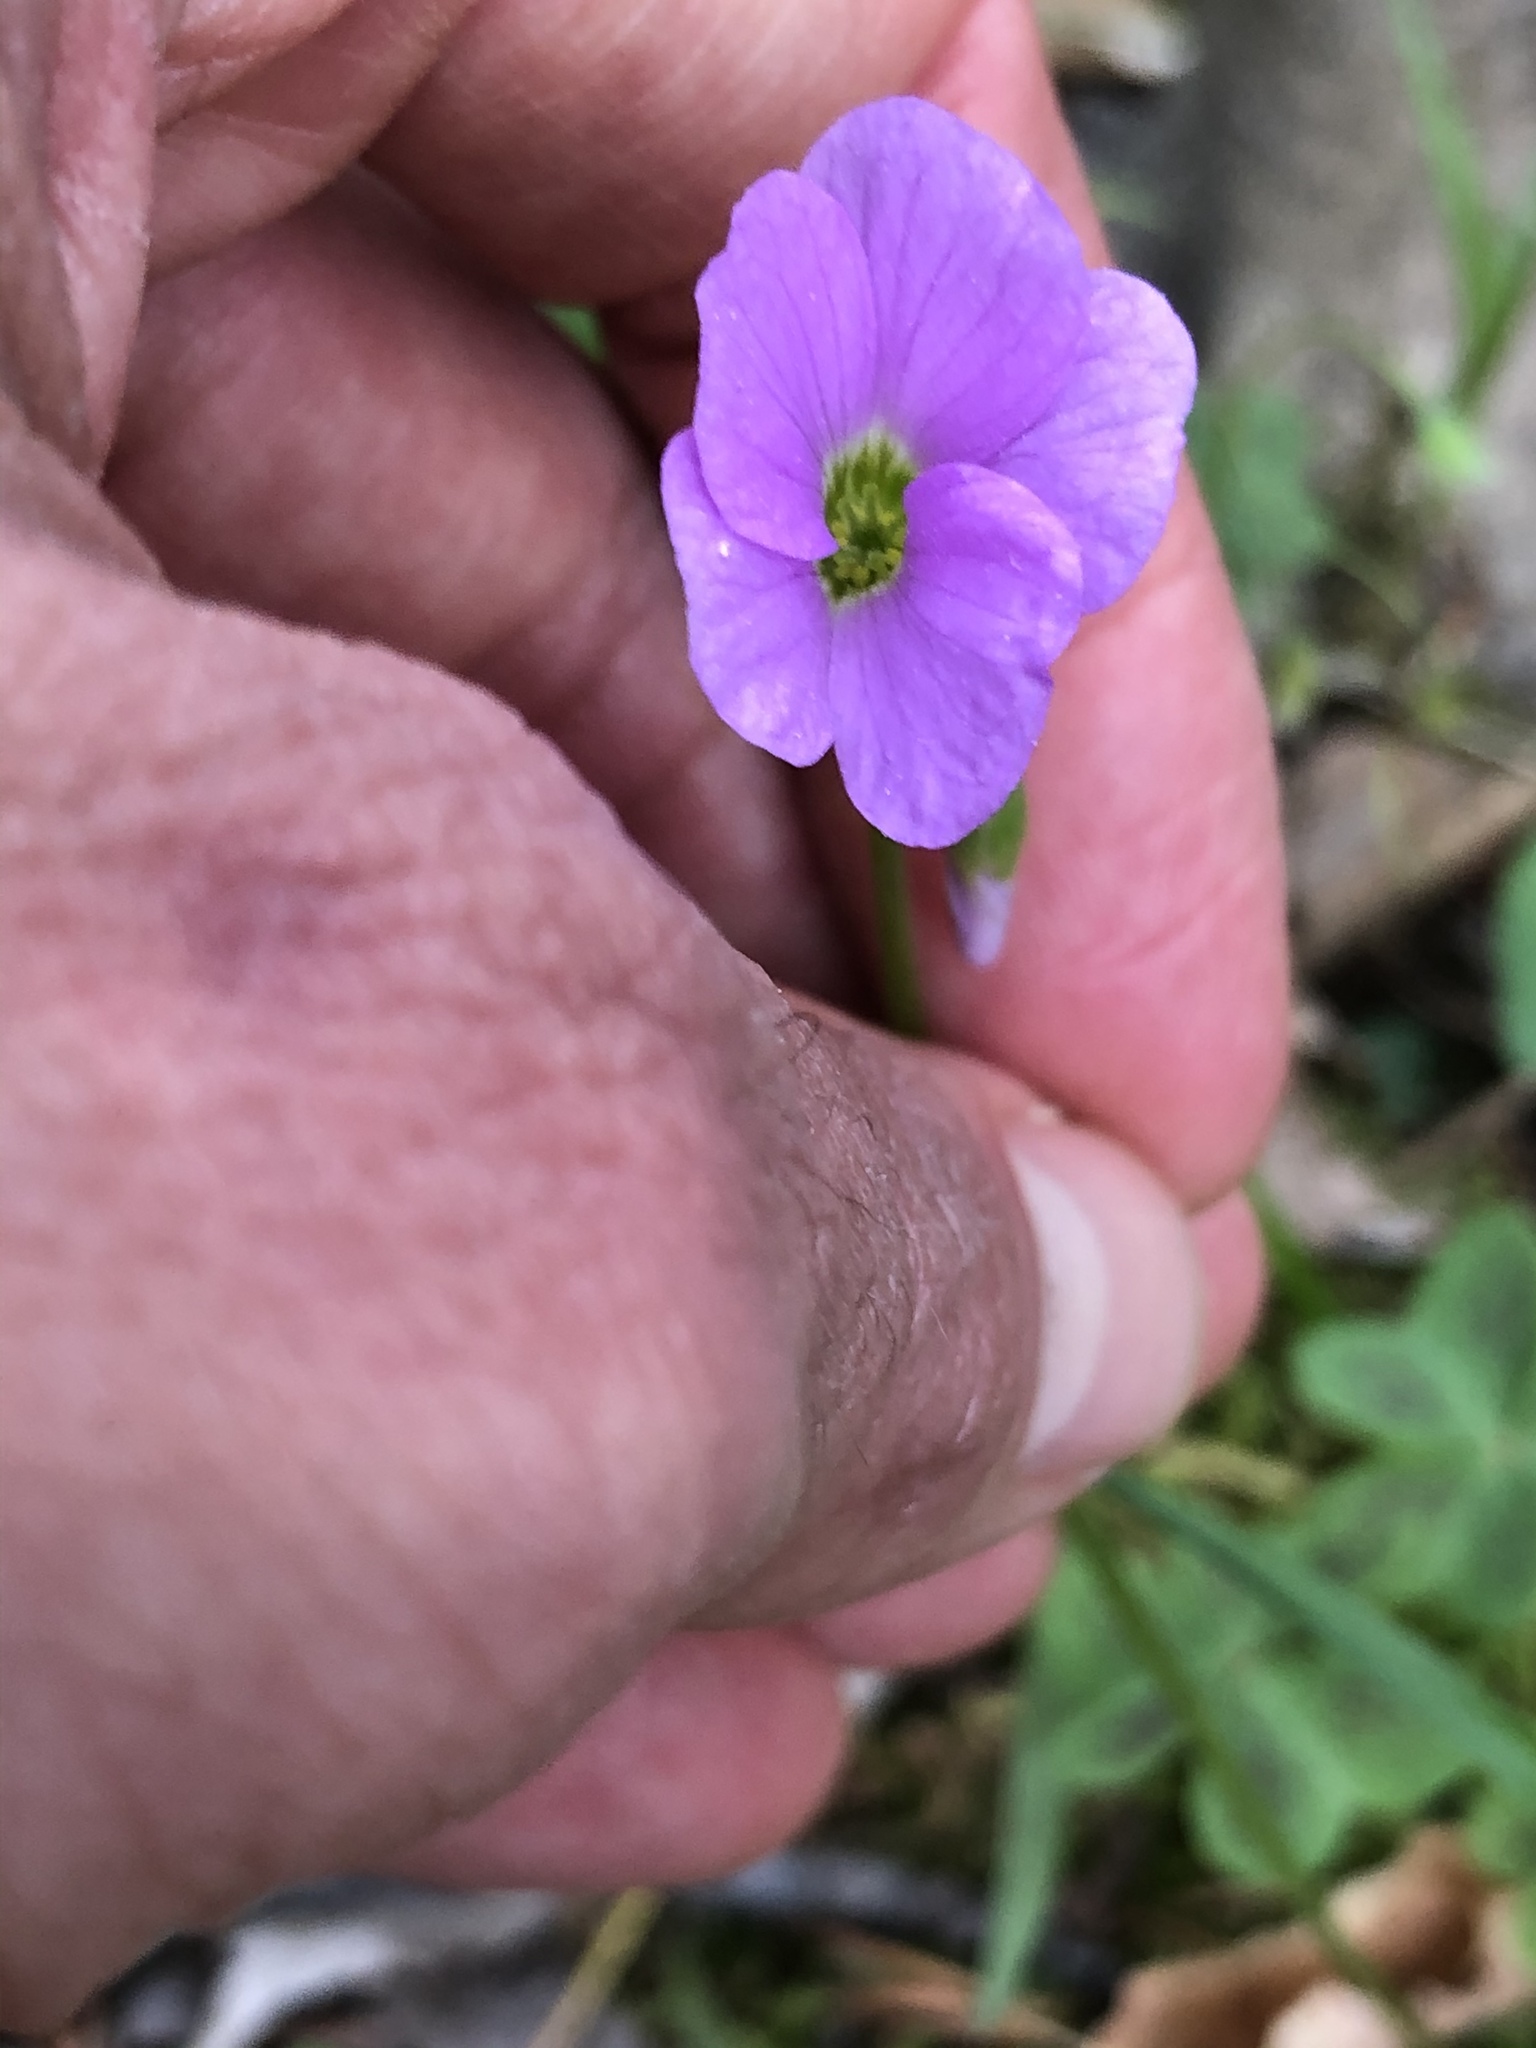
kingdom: Plantae
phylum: Tracheophyta
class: Magnoliopsida
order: Oxalidales
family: Oxalidaceae
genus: Oxalis
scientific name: Oxalis violacea
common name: Violet wood-sorrel
